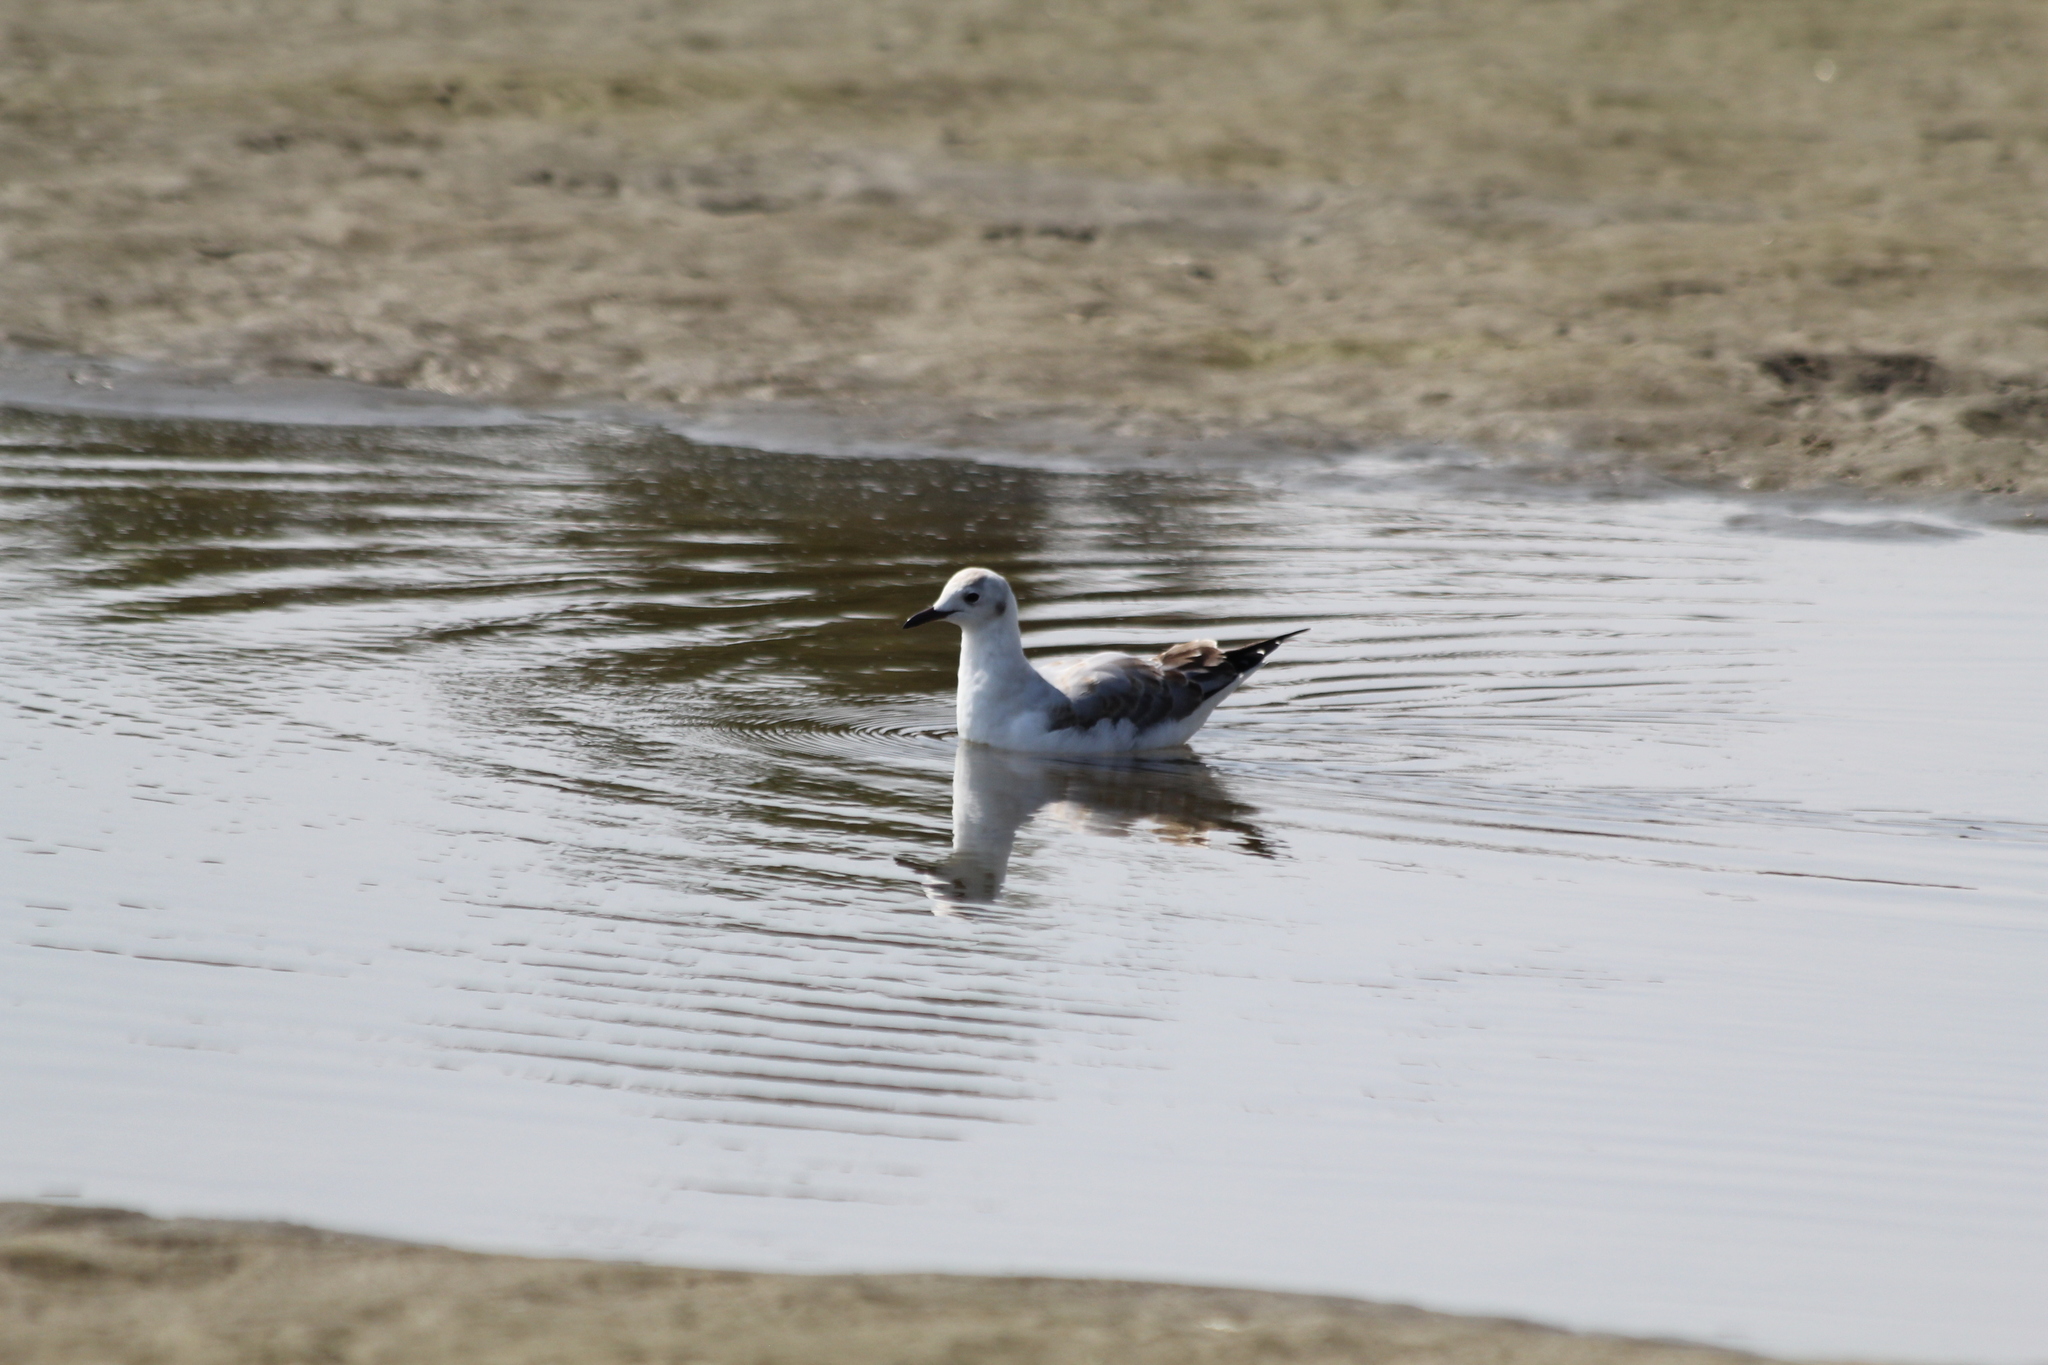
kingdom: Animalia
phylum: Chordata
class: Aves
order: Charadriiformes
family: Laridae
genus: Chroicocephalus
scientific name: Chroicocephalus hartlaubii
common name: Hartlaub's gull
